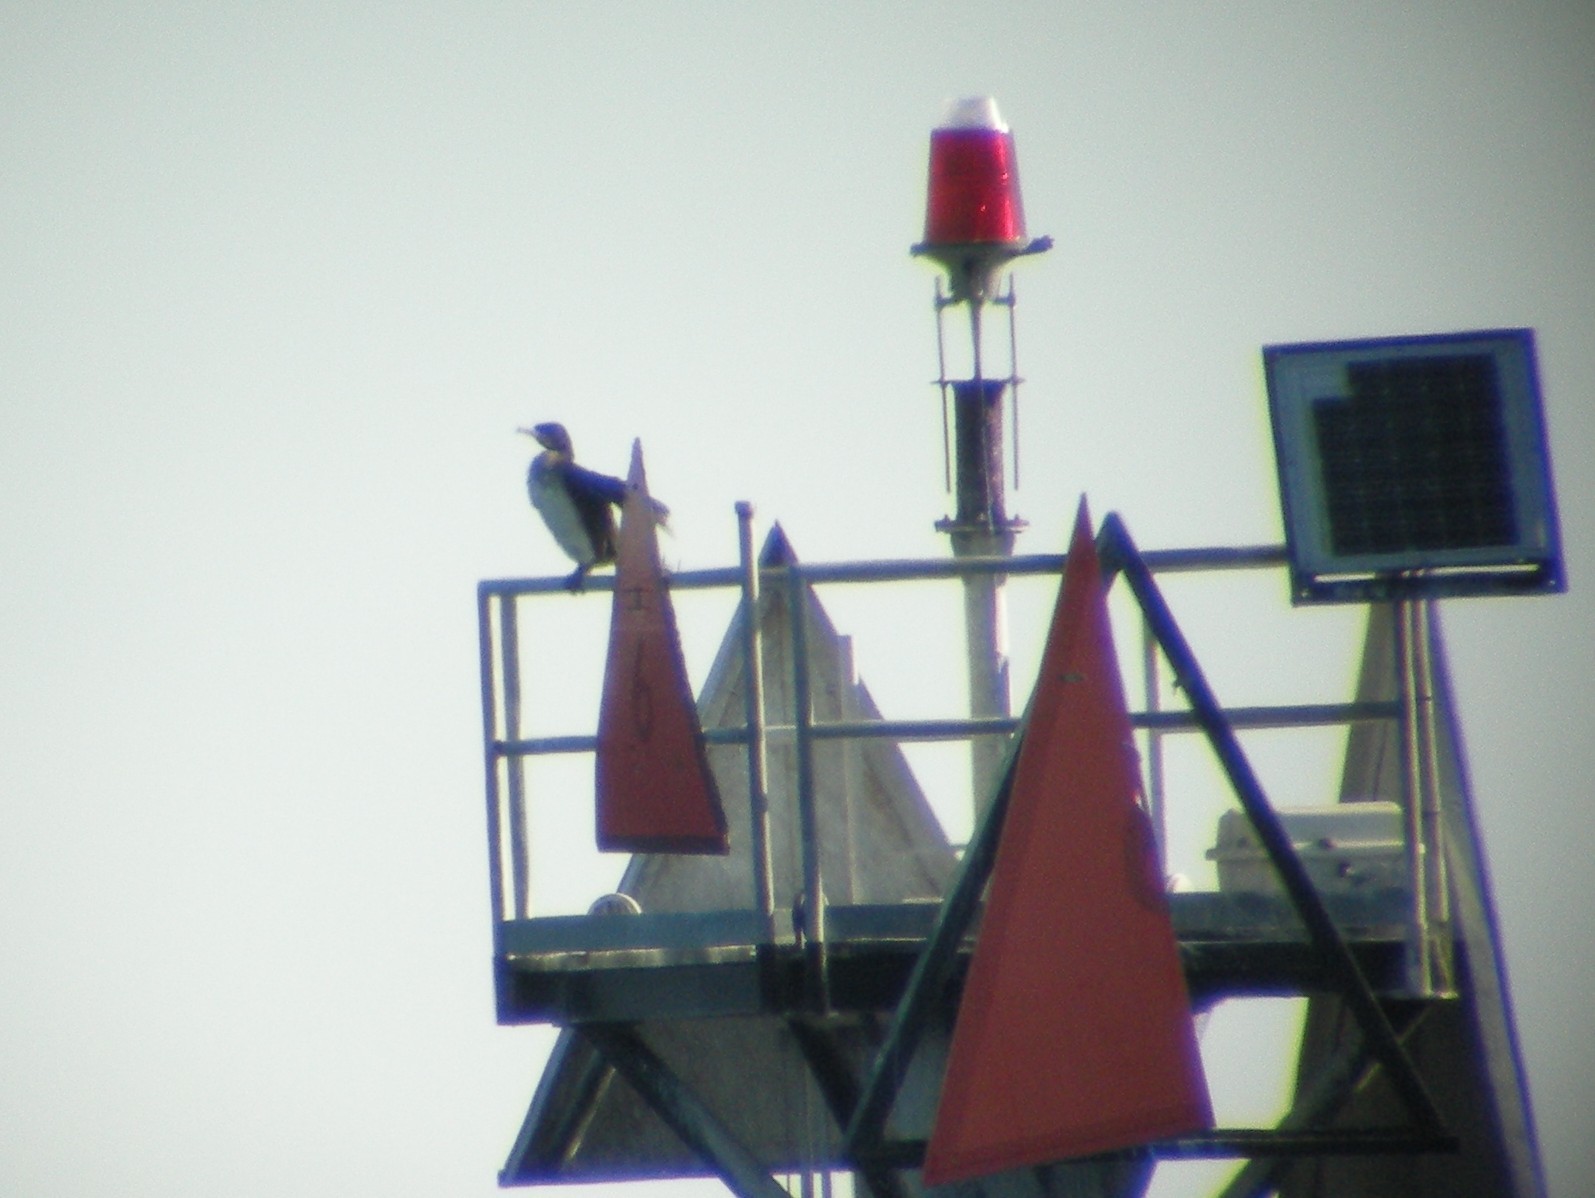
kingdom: Animalia
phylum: Chordata
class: Aves
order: Suliformes
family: Phalacrocoracidae
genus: Phalacrocorax
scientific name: Phalacrocorax carbo
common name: Great cormorant
